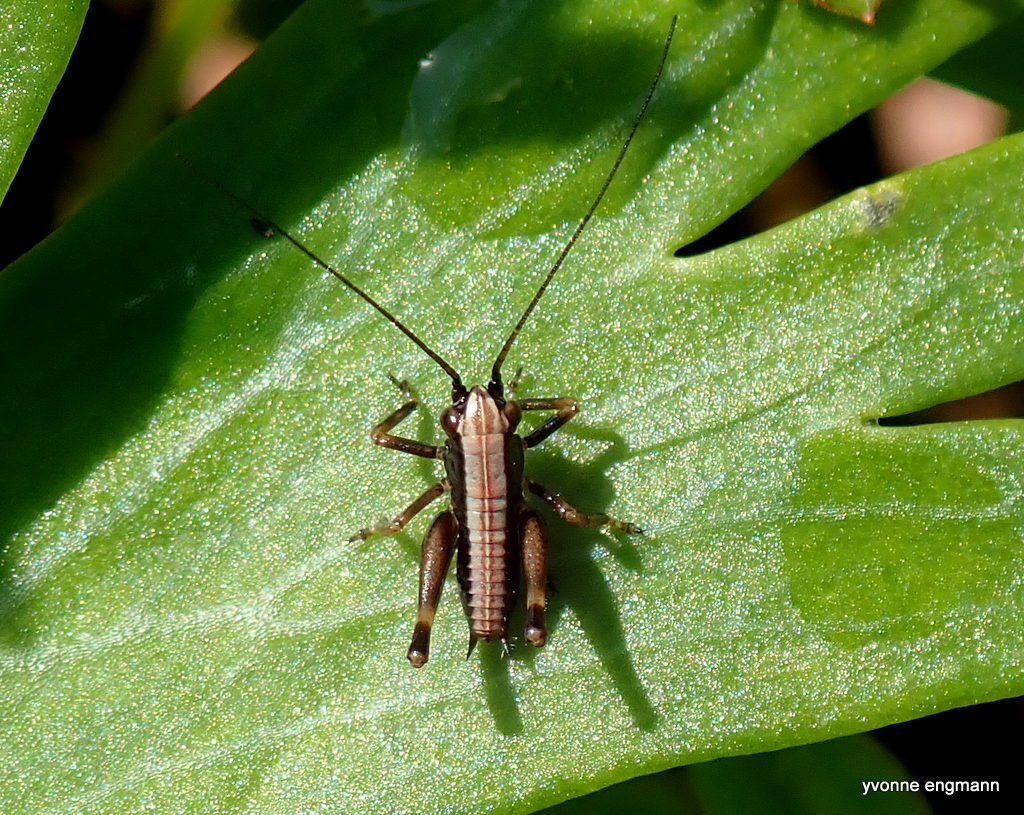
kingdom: Animalia
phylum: Arthropoda
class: Insecta
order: Orthoptera
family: Tettigoniidae
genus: Pholidoptera
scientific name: Pholidoptera griseoaptera
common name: Dark bush-cricket
